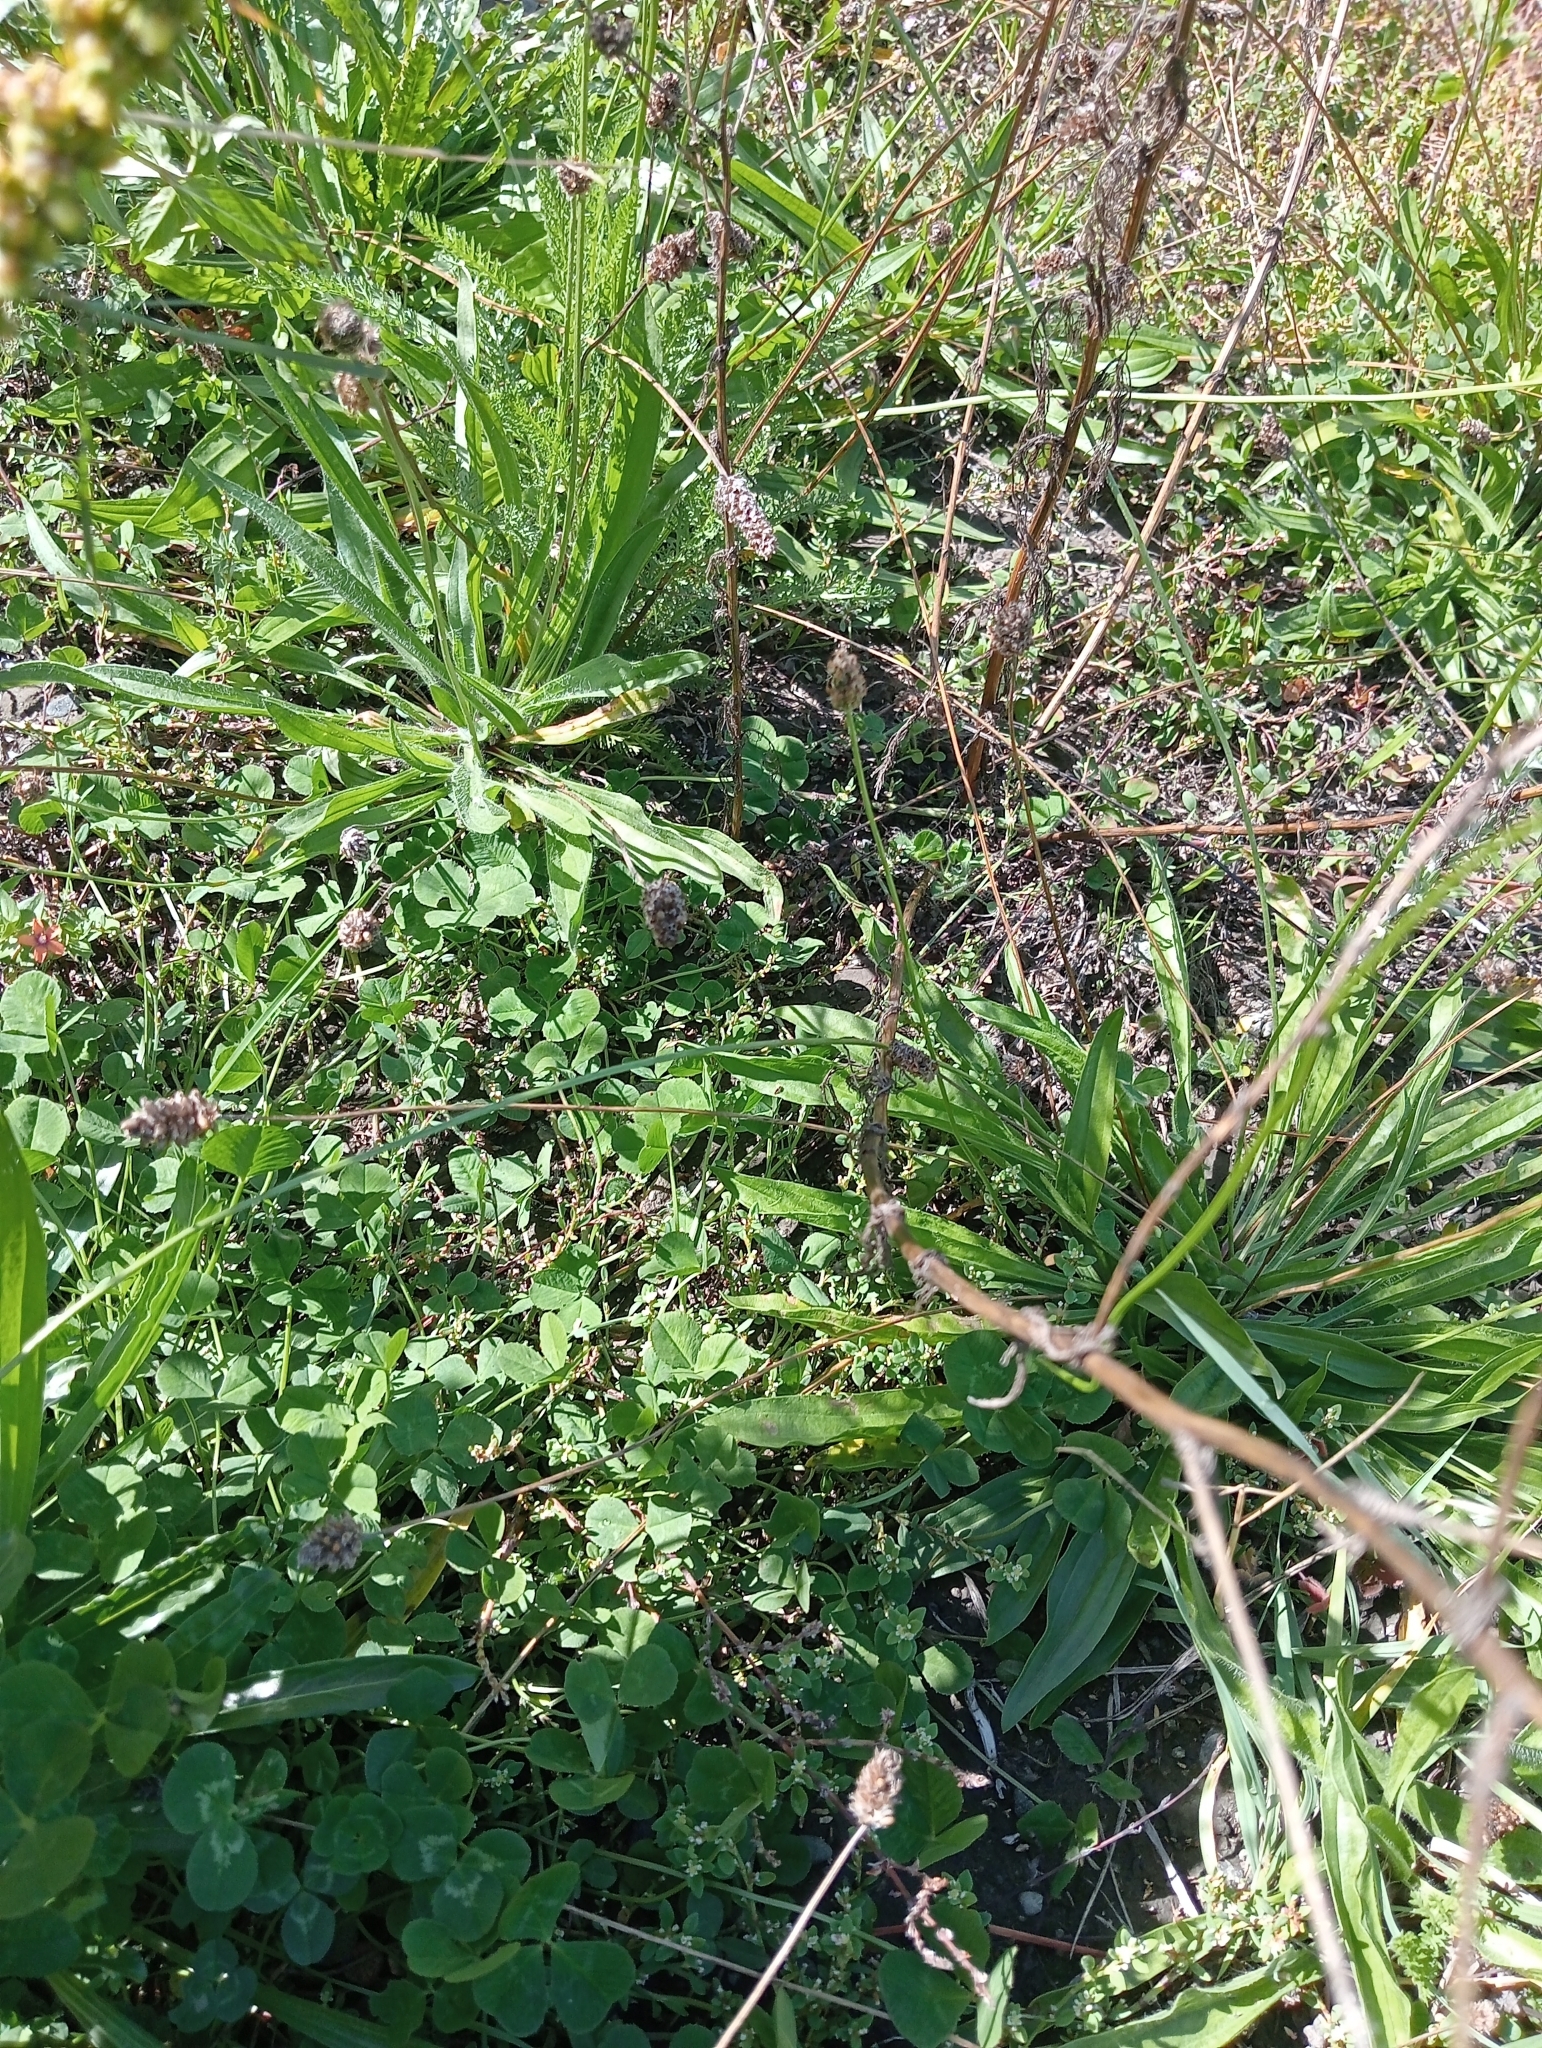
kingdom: Plantae
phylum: Tracheophyta
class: Magnoliopsida
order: Brassicales
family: Resedaceae
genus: Reseda
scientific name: Reseda luteola
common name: Weld
